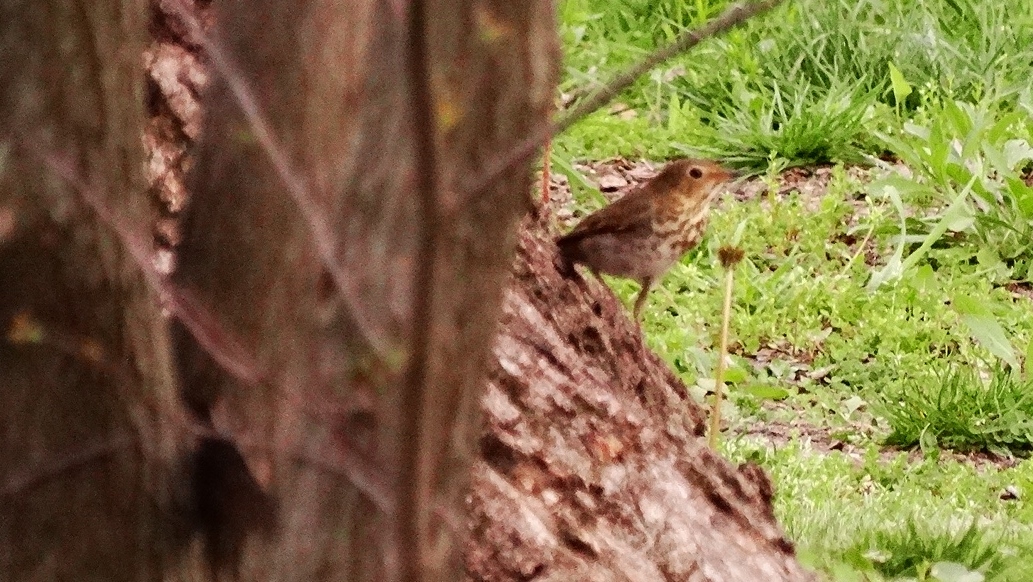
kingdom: Animalia
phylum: Chordata
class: Aves
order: Passeriformes
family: Turdidae
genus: Catharus
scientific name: Catharus ustulatus
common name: Swainson's thrush
